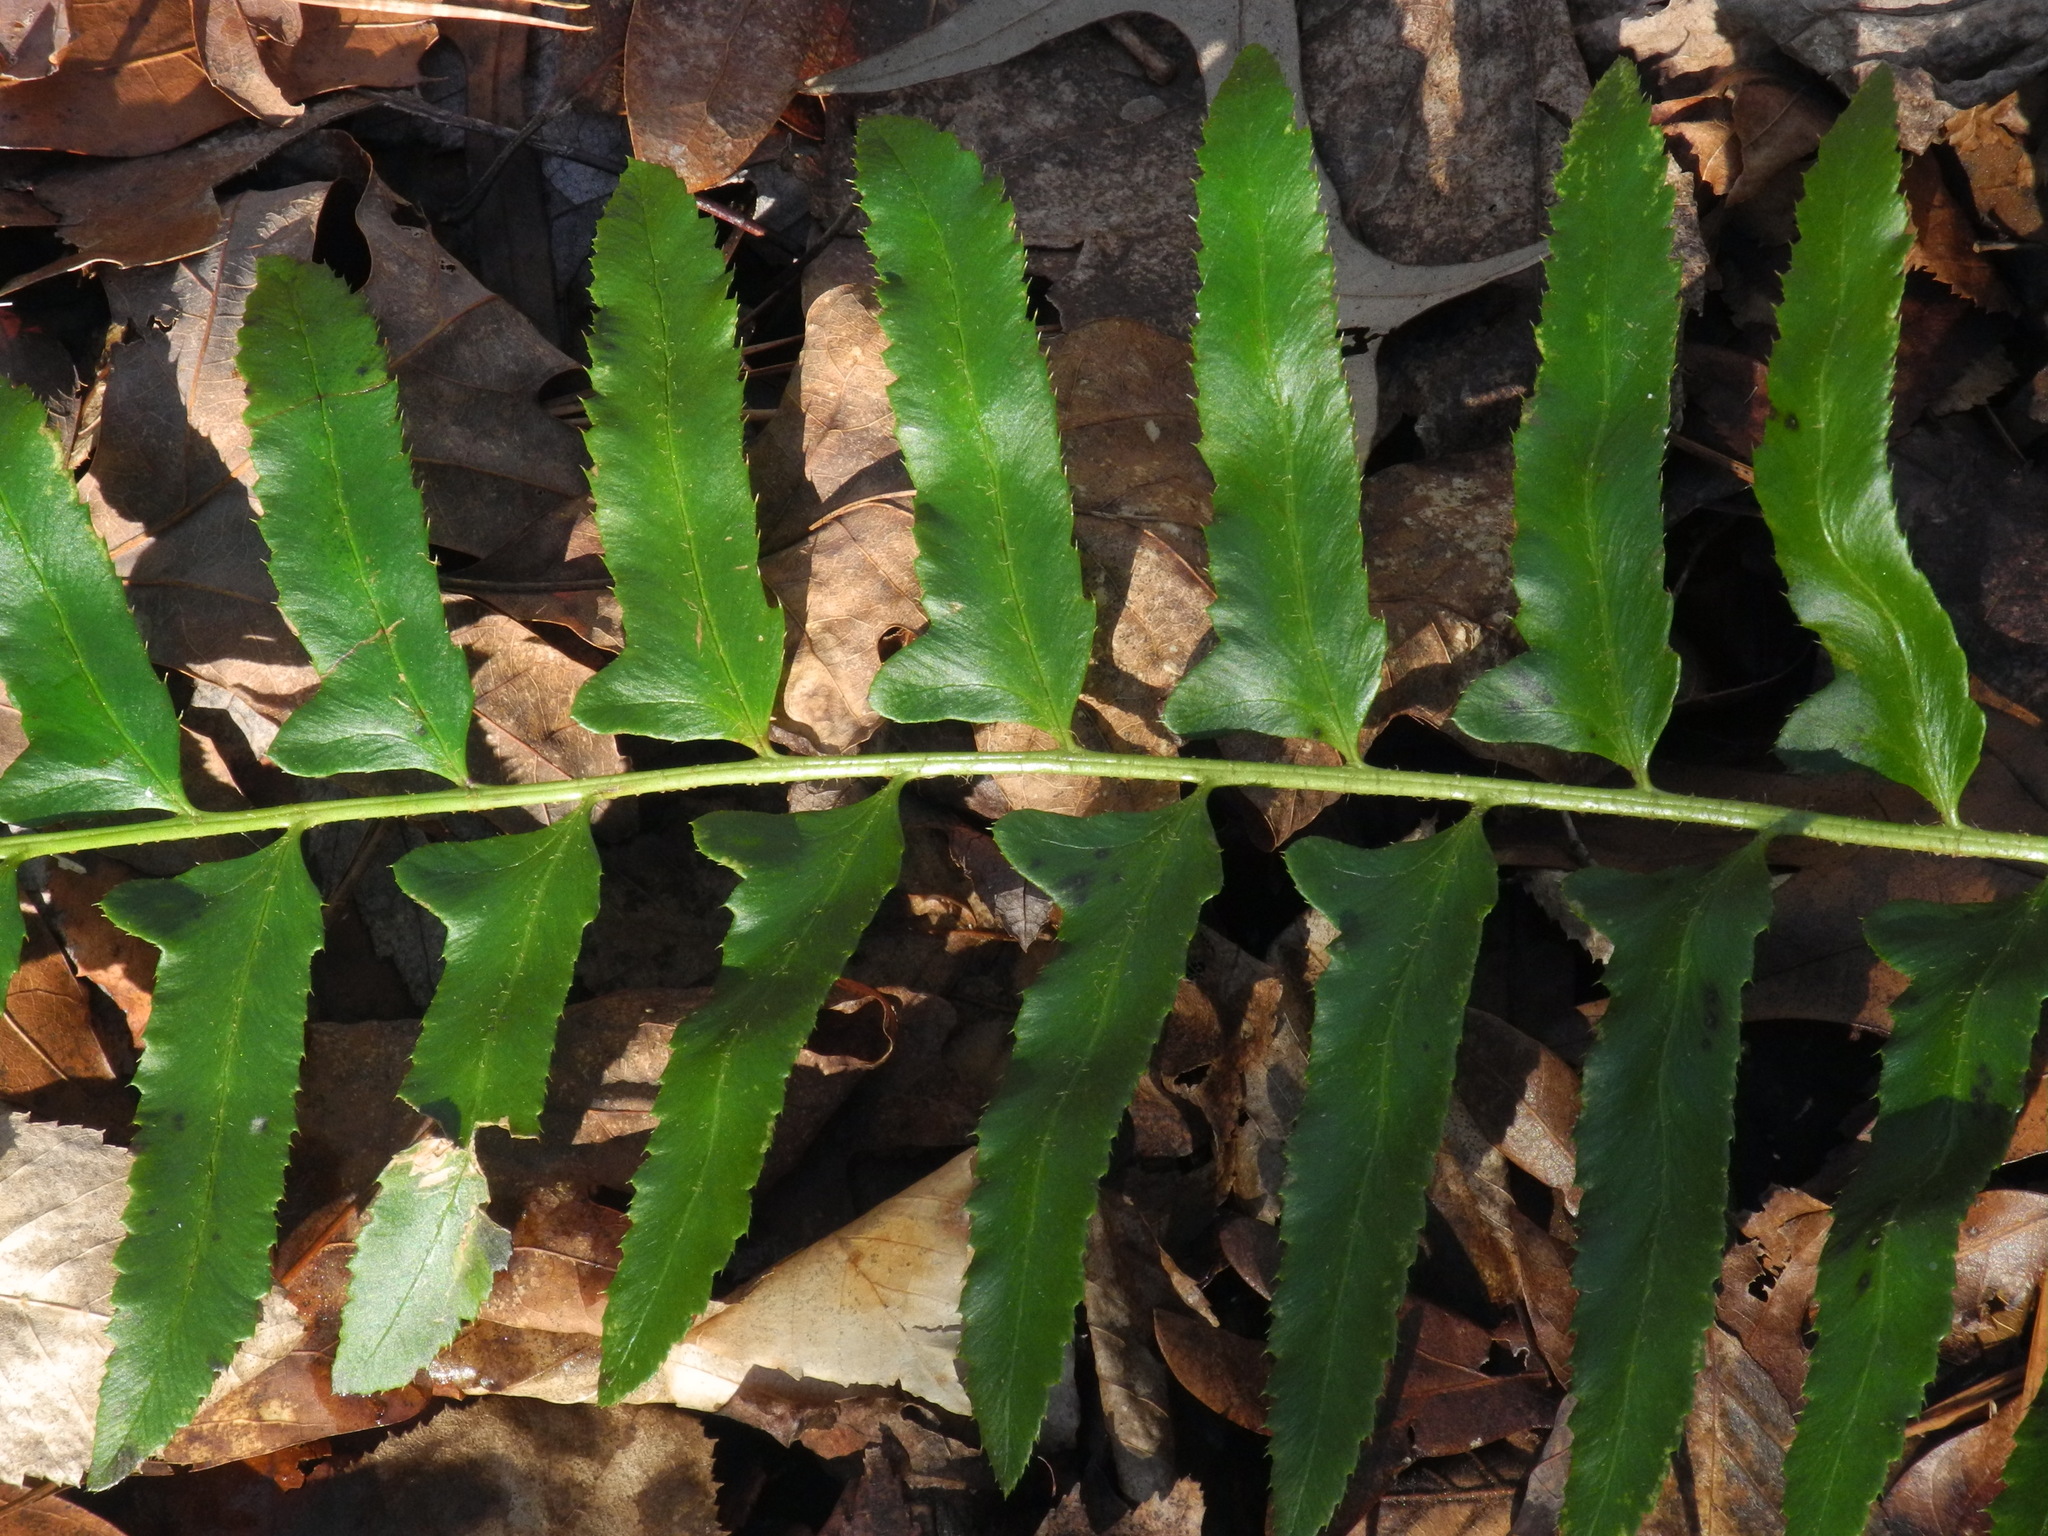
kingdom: Plantae
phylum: Tracheophyta
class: Polypodiopsida
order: Polypodiales
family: Dryopteridaceae
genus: Polystichum
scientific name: Polystichum acrostichoides
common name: Christmas fern
